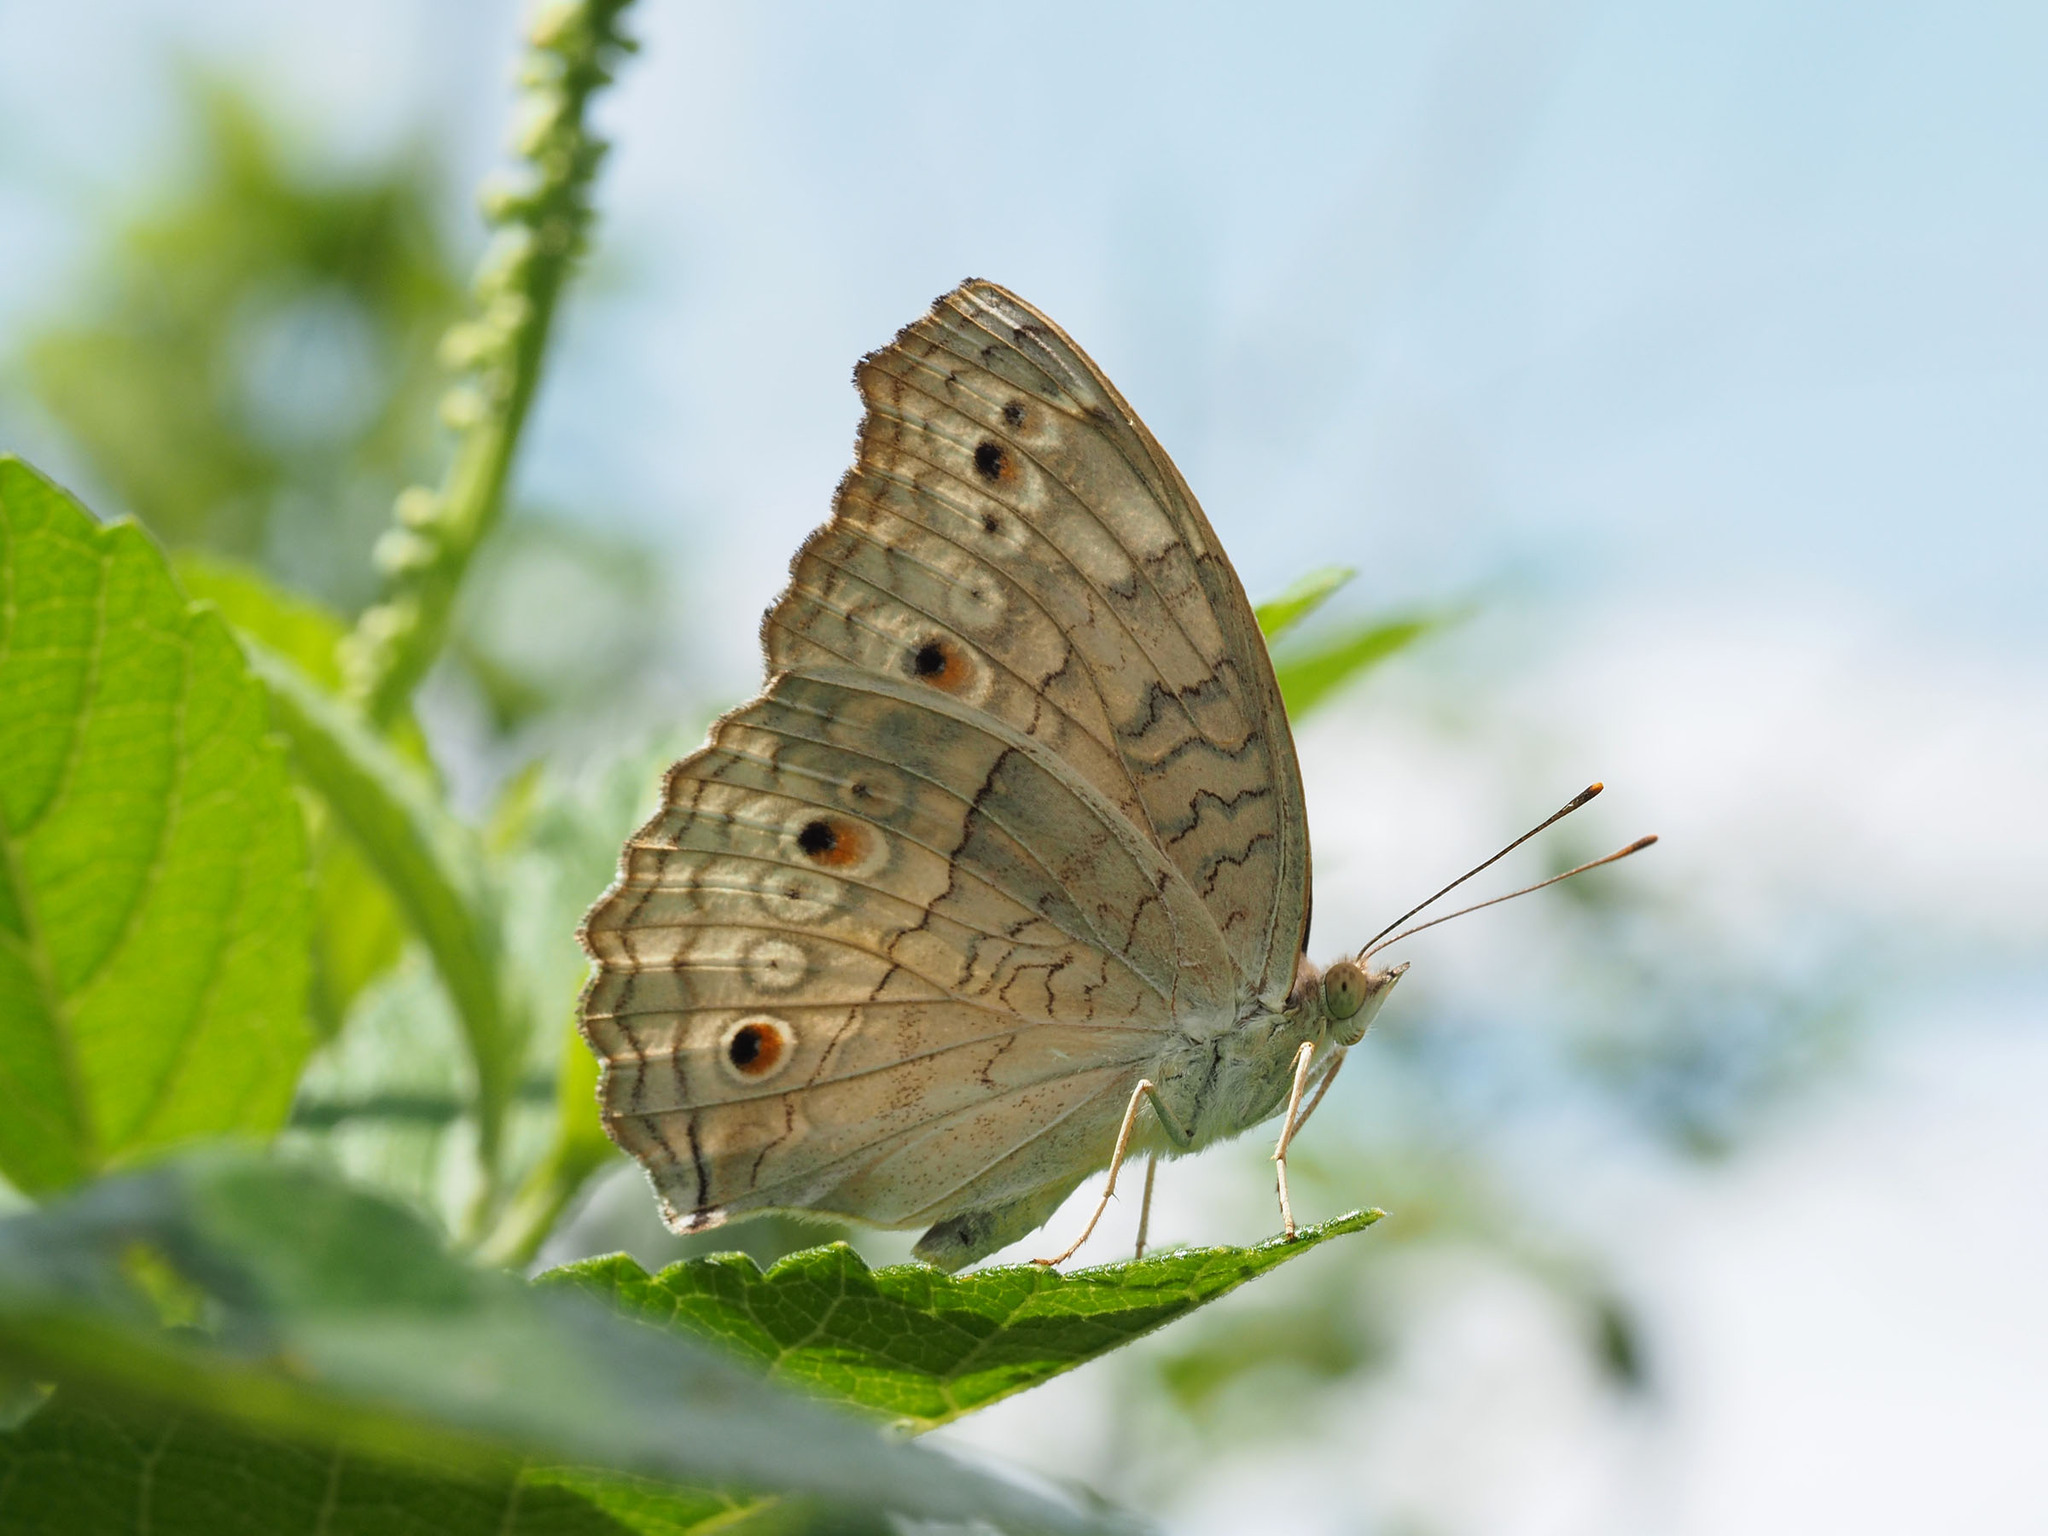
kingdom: Animalia
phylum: Arthropoda
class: Insecta
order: Lepidoptera
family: Nymphalidae
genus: Junonia
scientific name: Junonia atlites
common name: Grey pansy
